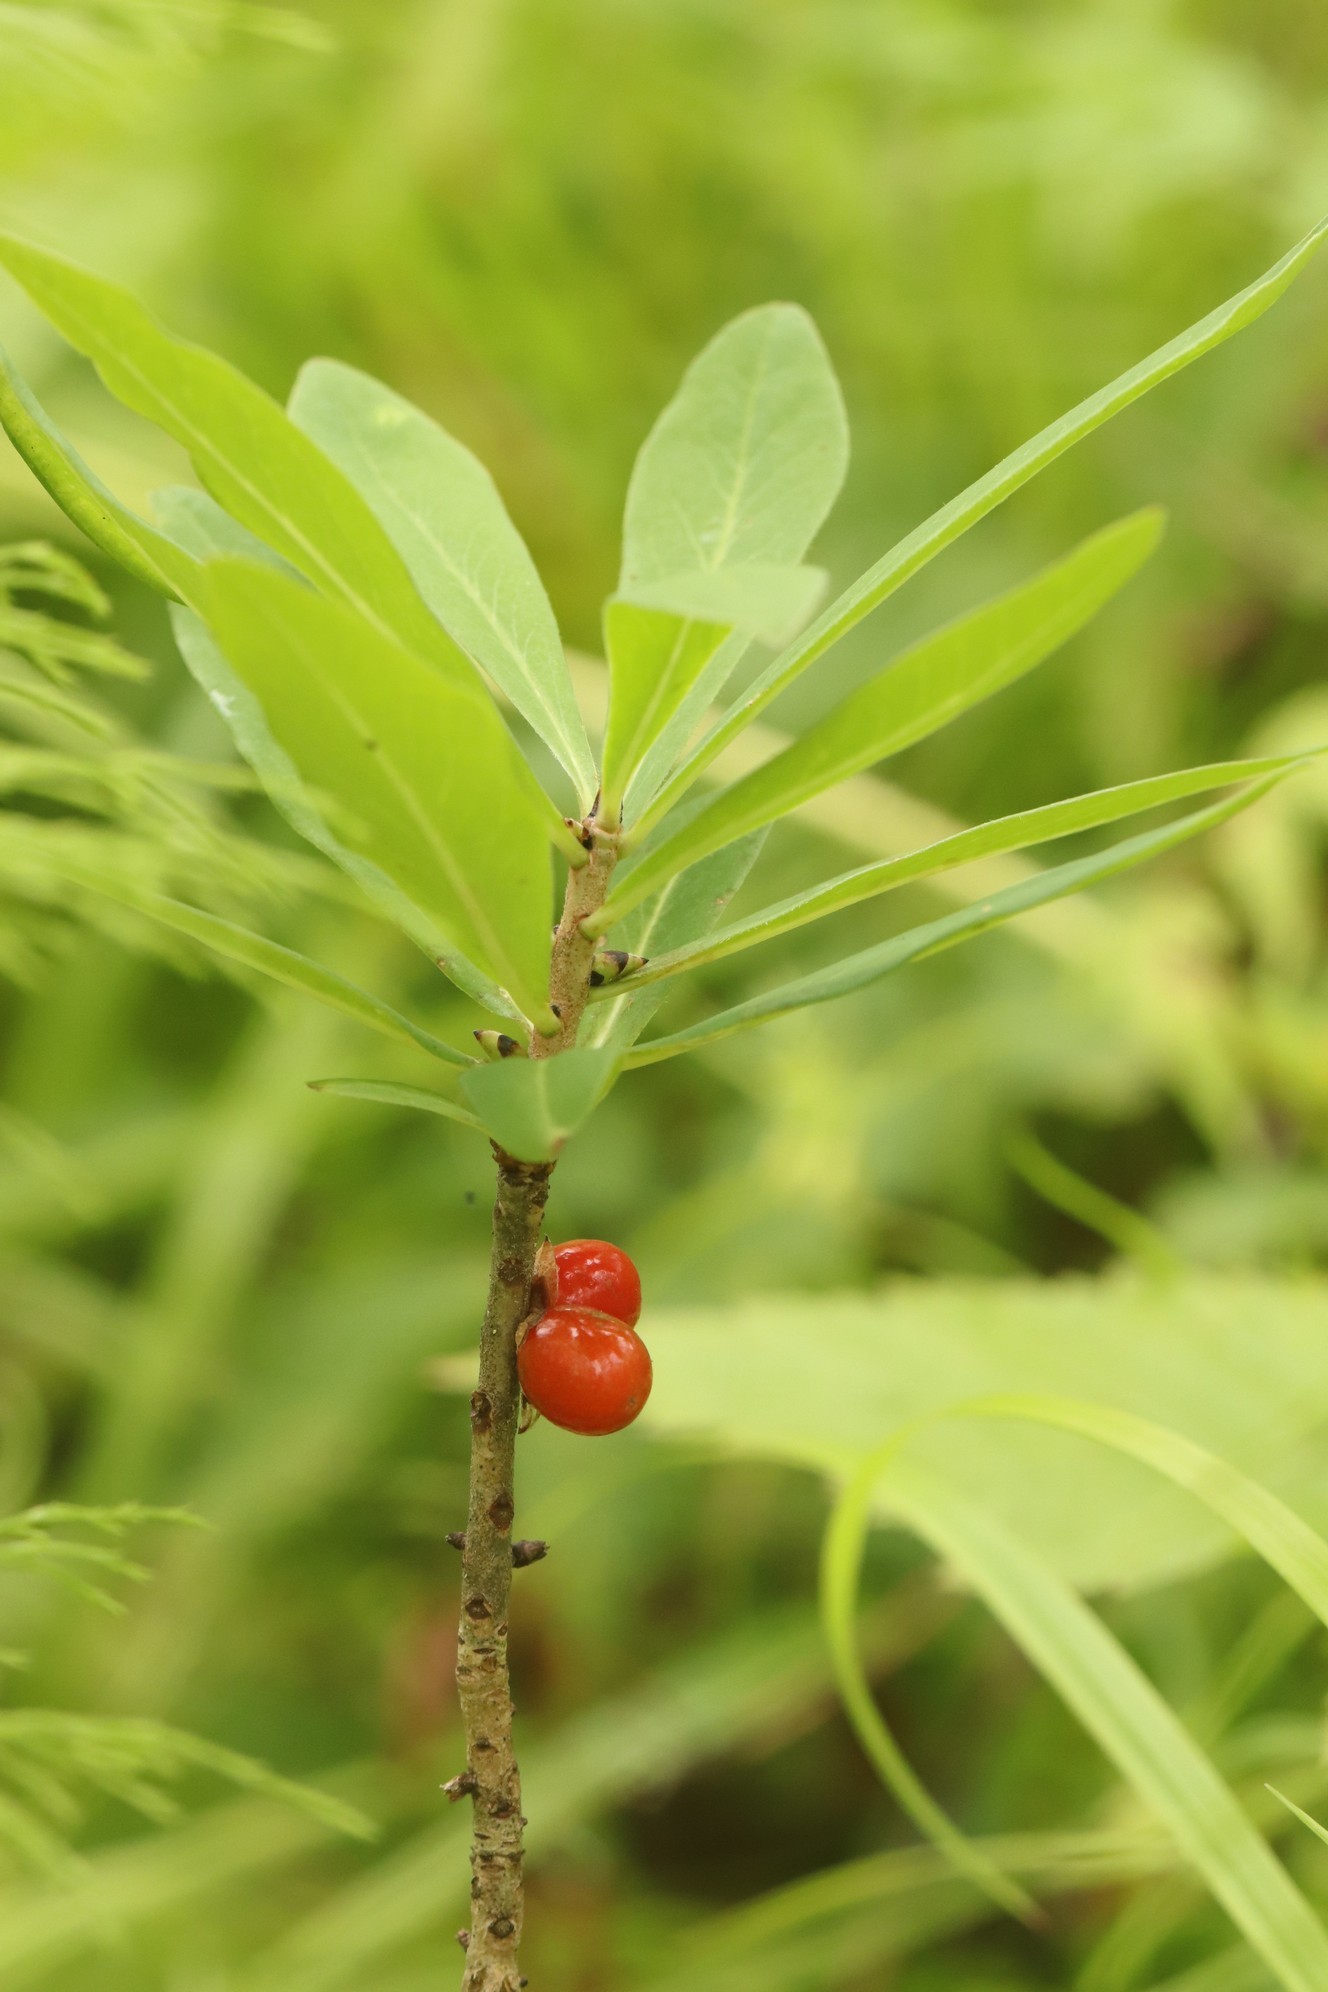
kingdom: Plantae
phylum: Tracheophyta
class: Magnoliopsida
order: Malvales
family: Thymelaeaceae
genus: Daphne
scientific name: Daphne mezereum
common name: Mezereon
